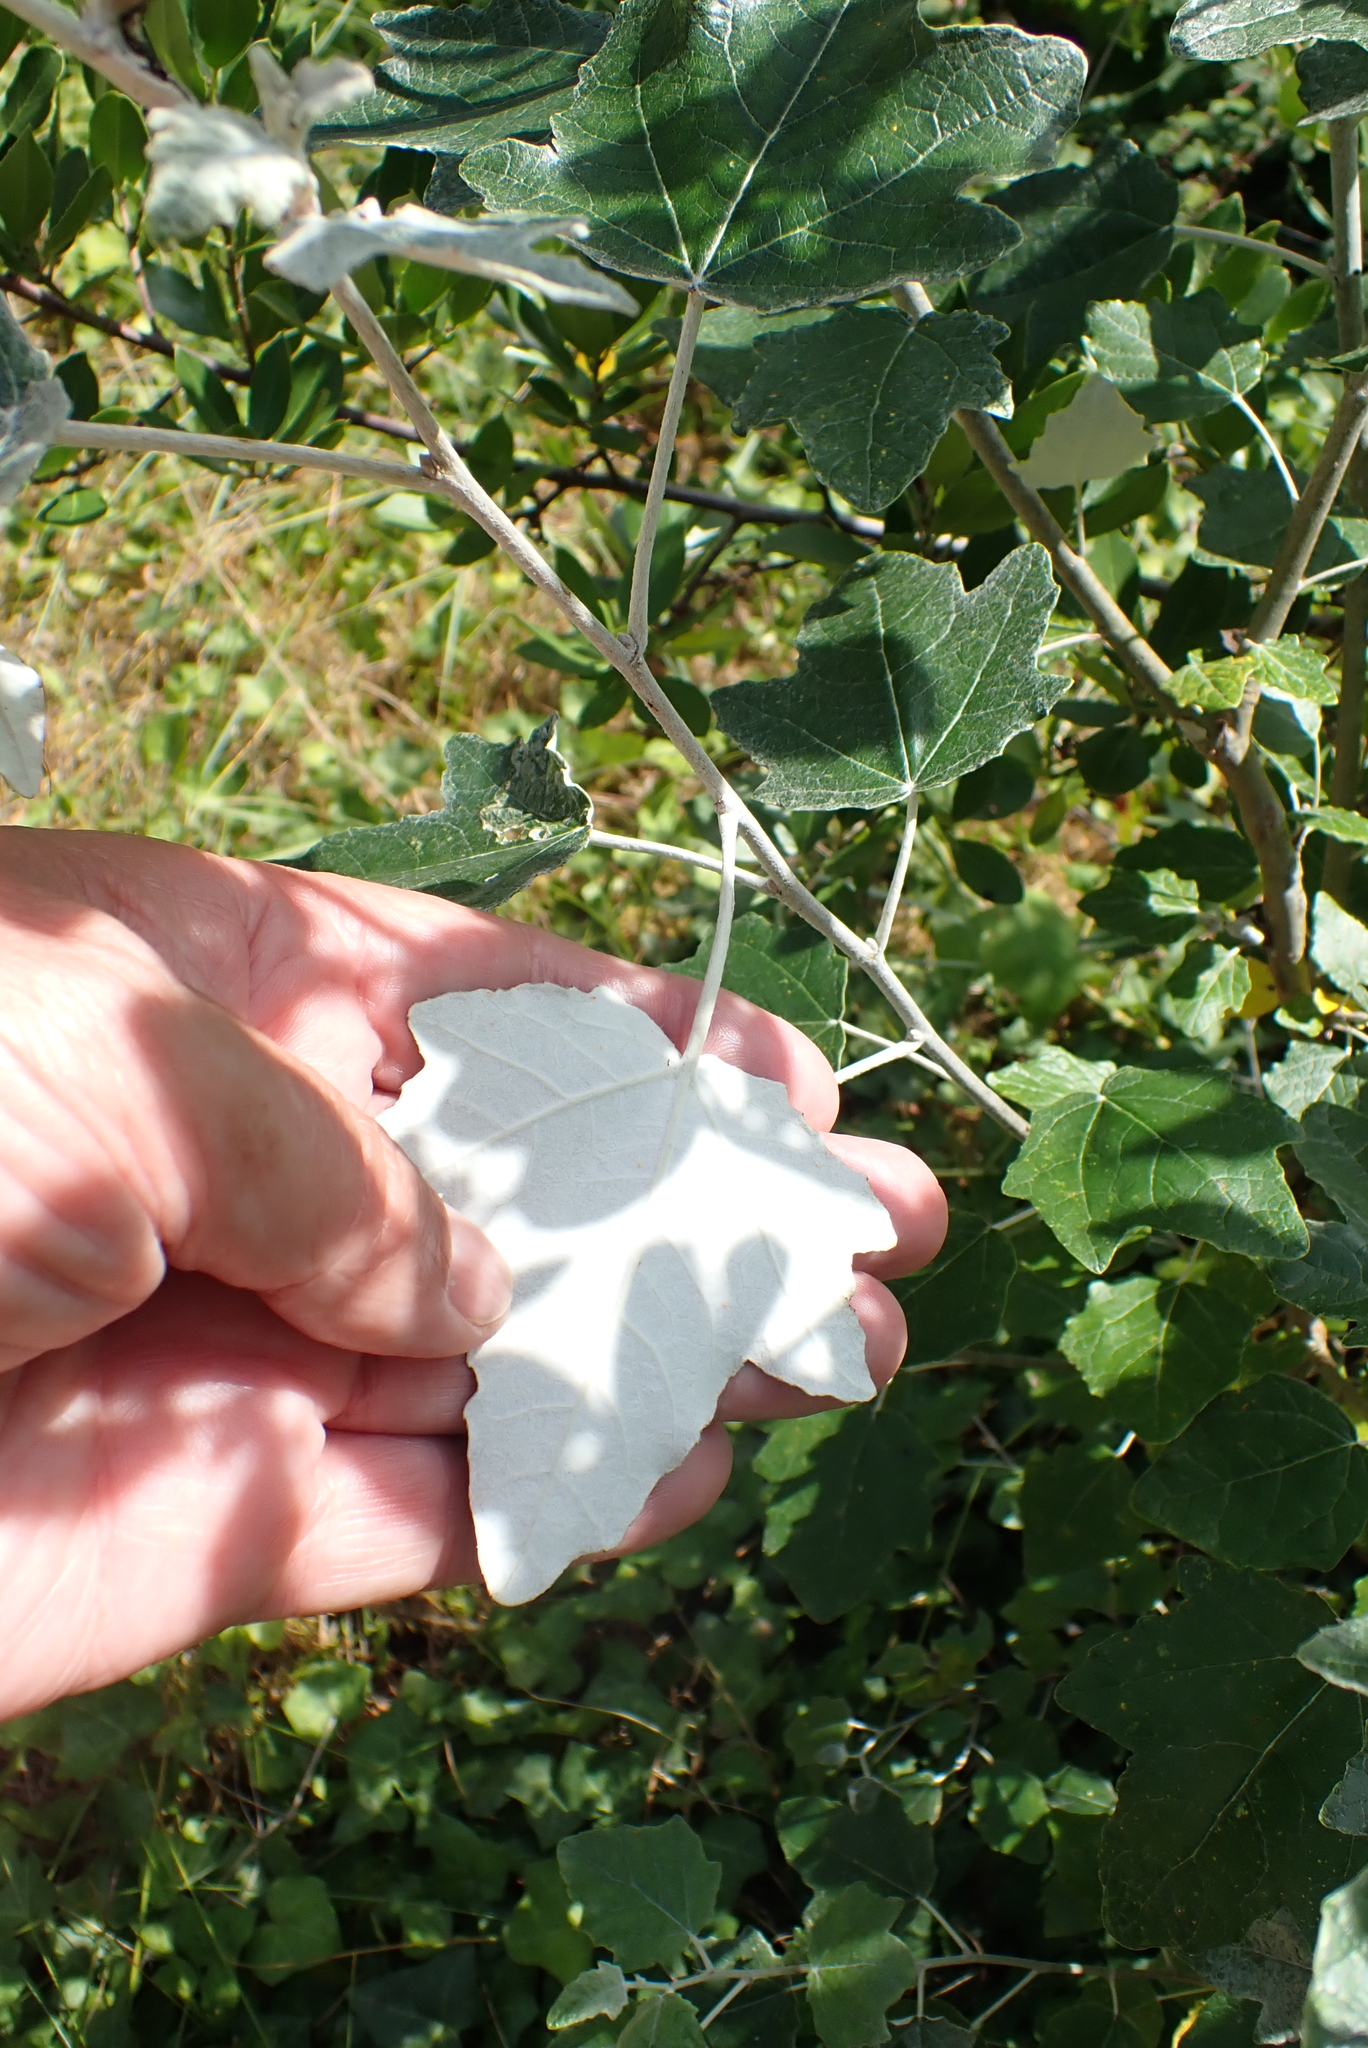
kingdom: Plantae
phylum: Tracheophyta
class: Magnoliopsida
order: Malpighiales
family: Salicaceae
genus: Populus
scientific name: Populus alba
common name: White poplar
